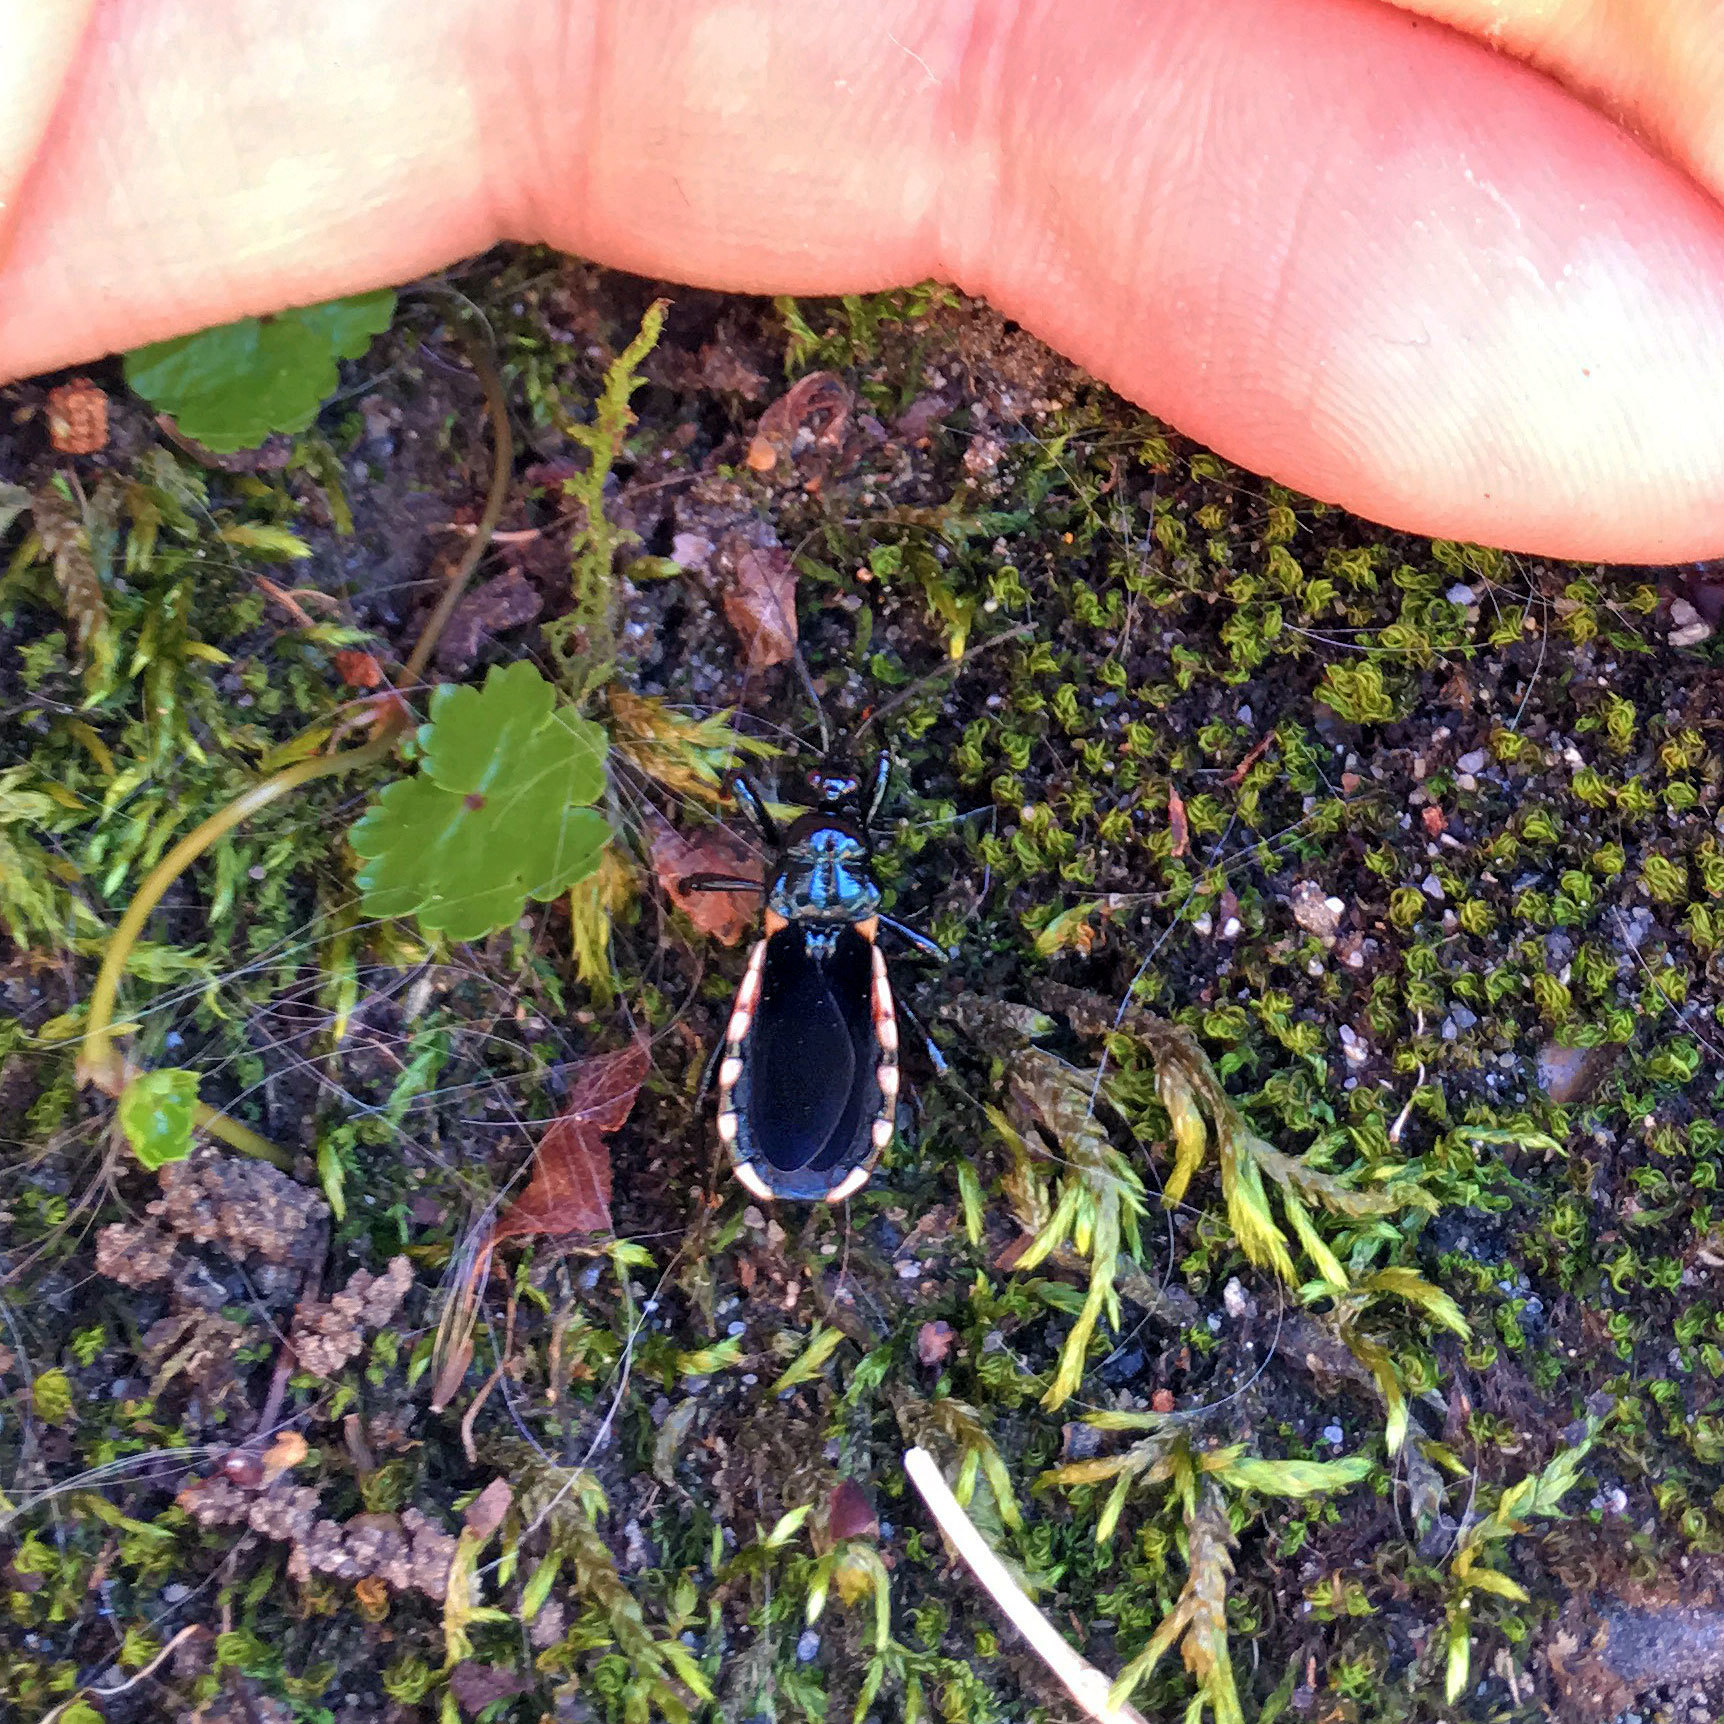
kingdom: Animalia
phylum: Arthropoda
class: Insecta
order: Hemiptera
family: Reduviidae
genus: Ectrychotes
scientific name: Ectrychotes andreae
